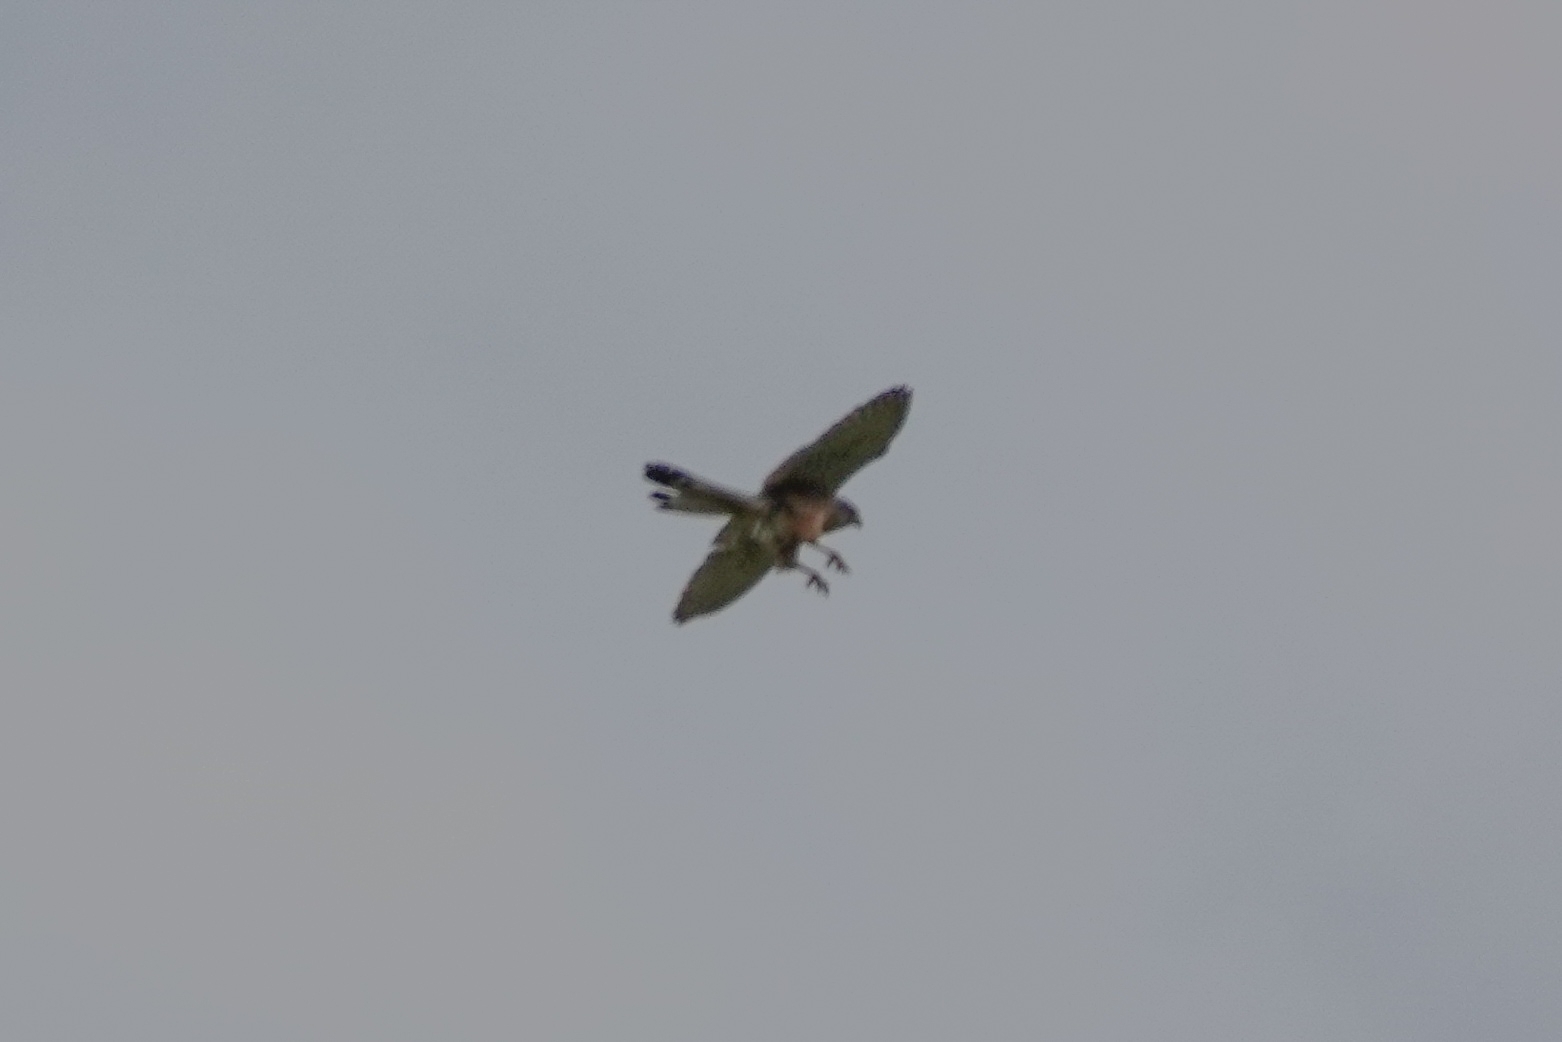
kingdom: Animalia
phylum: Chordata
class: Aves
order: Falconiformes
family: Falconidae
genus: Falco
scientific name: Falco tinnunculus
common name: Common kestrel
